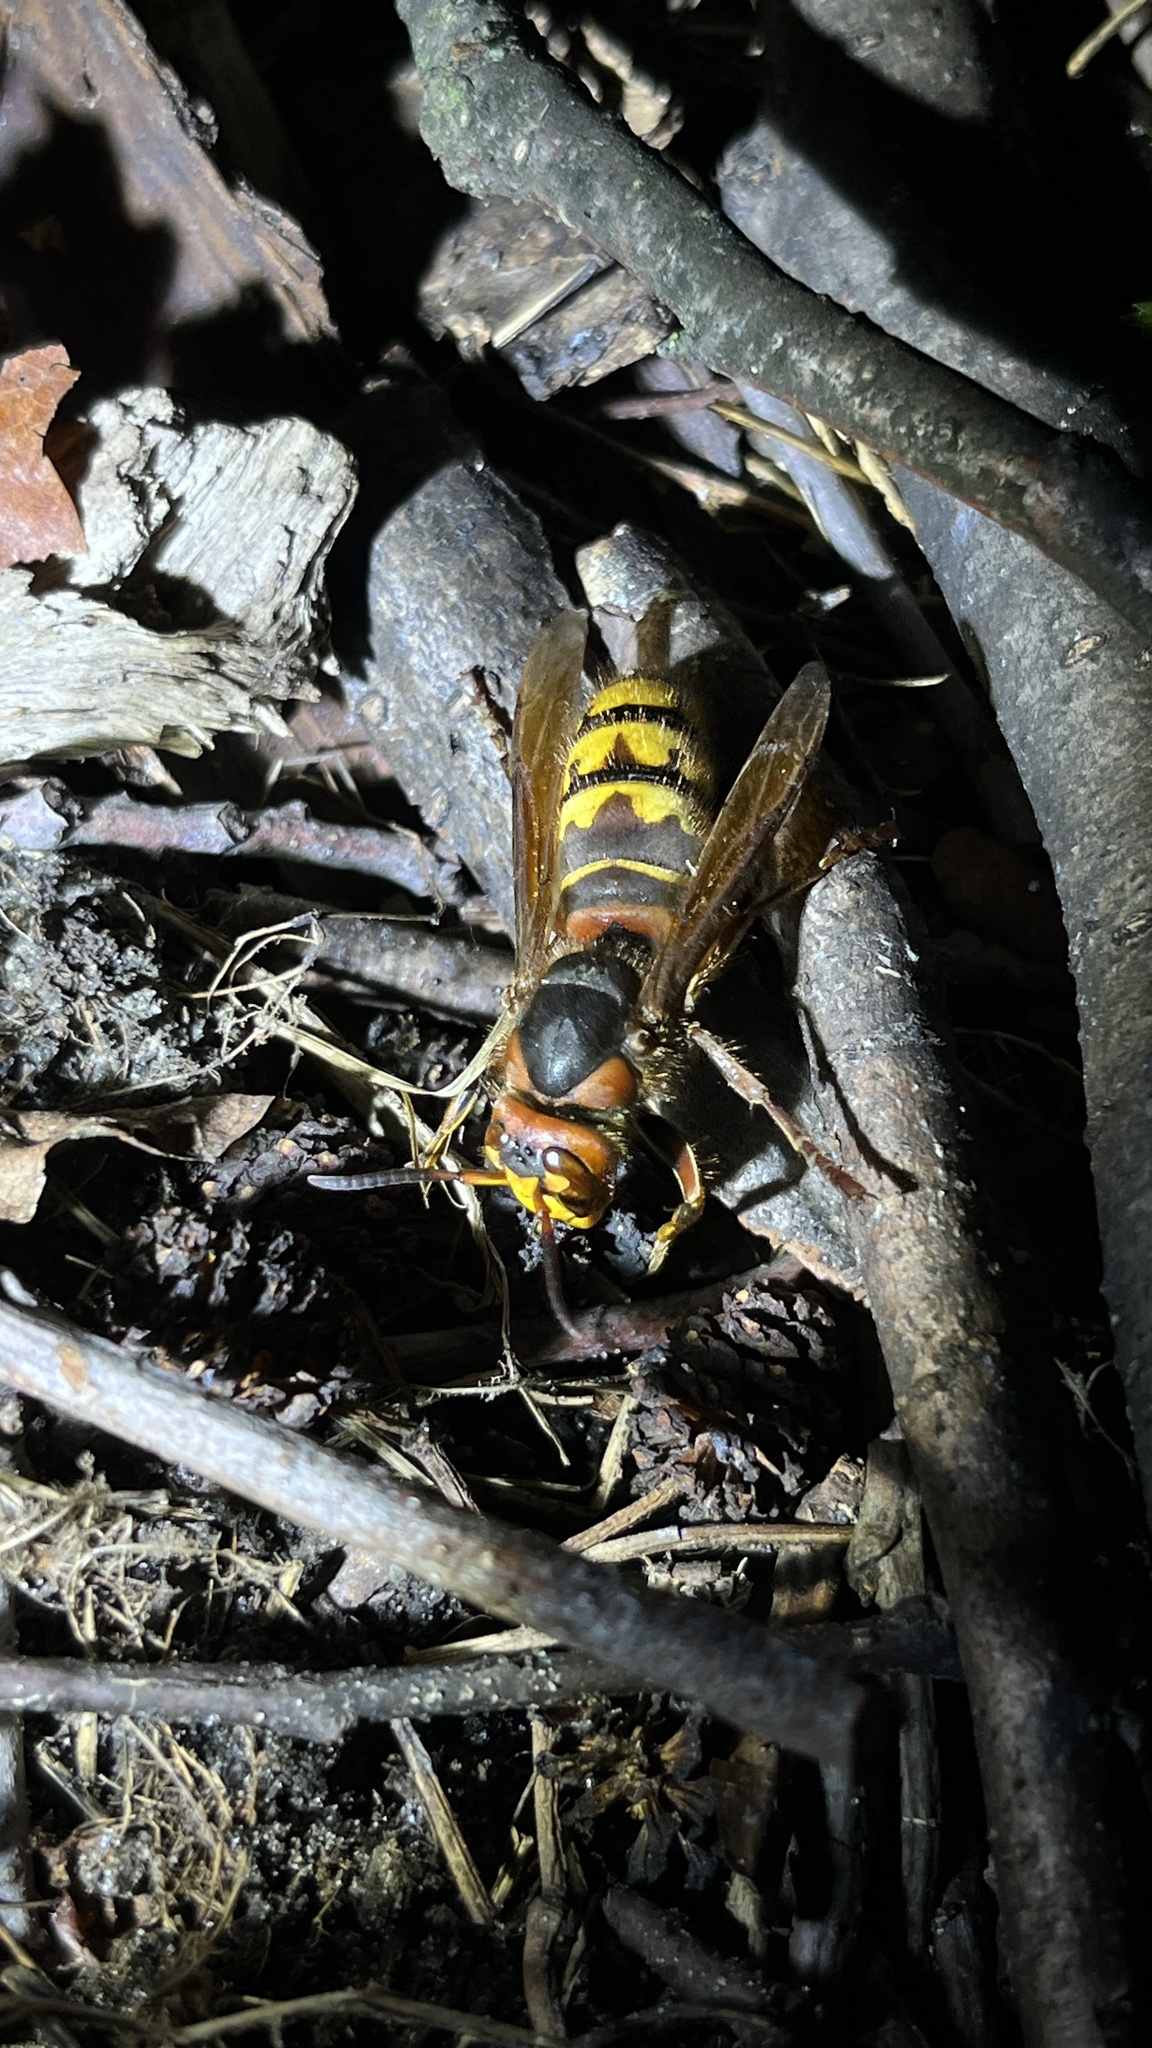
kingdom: Animalia
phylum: Arthropoda
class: Insecta
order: Hymenoptera
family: Vespidae
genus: Vespa
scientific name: Vespa crabro
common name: Hornet
